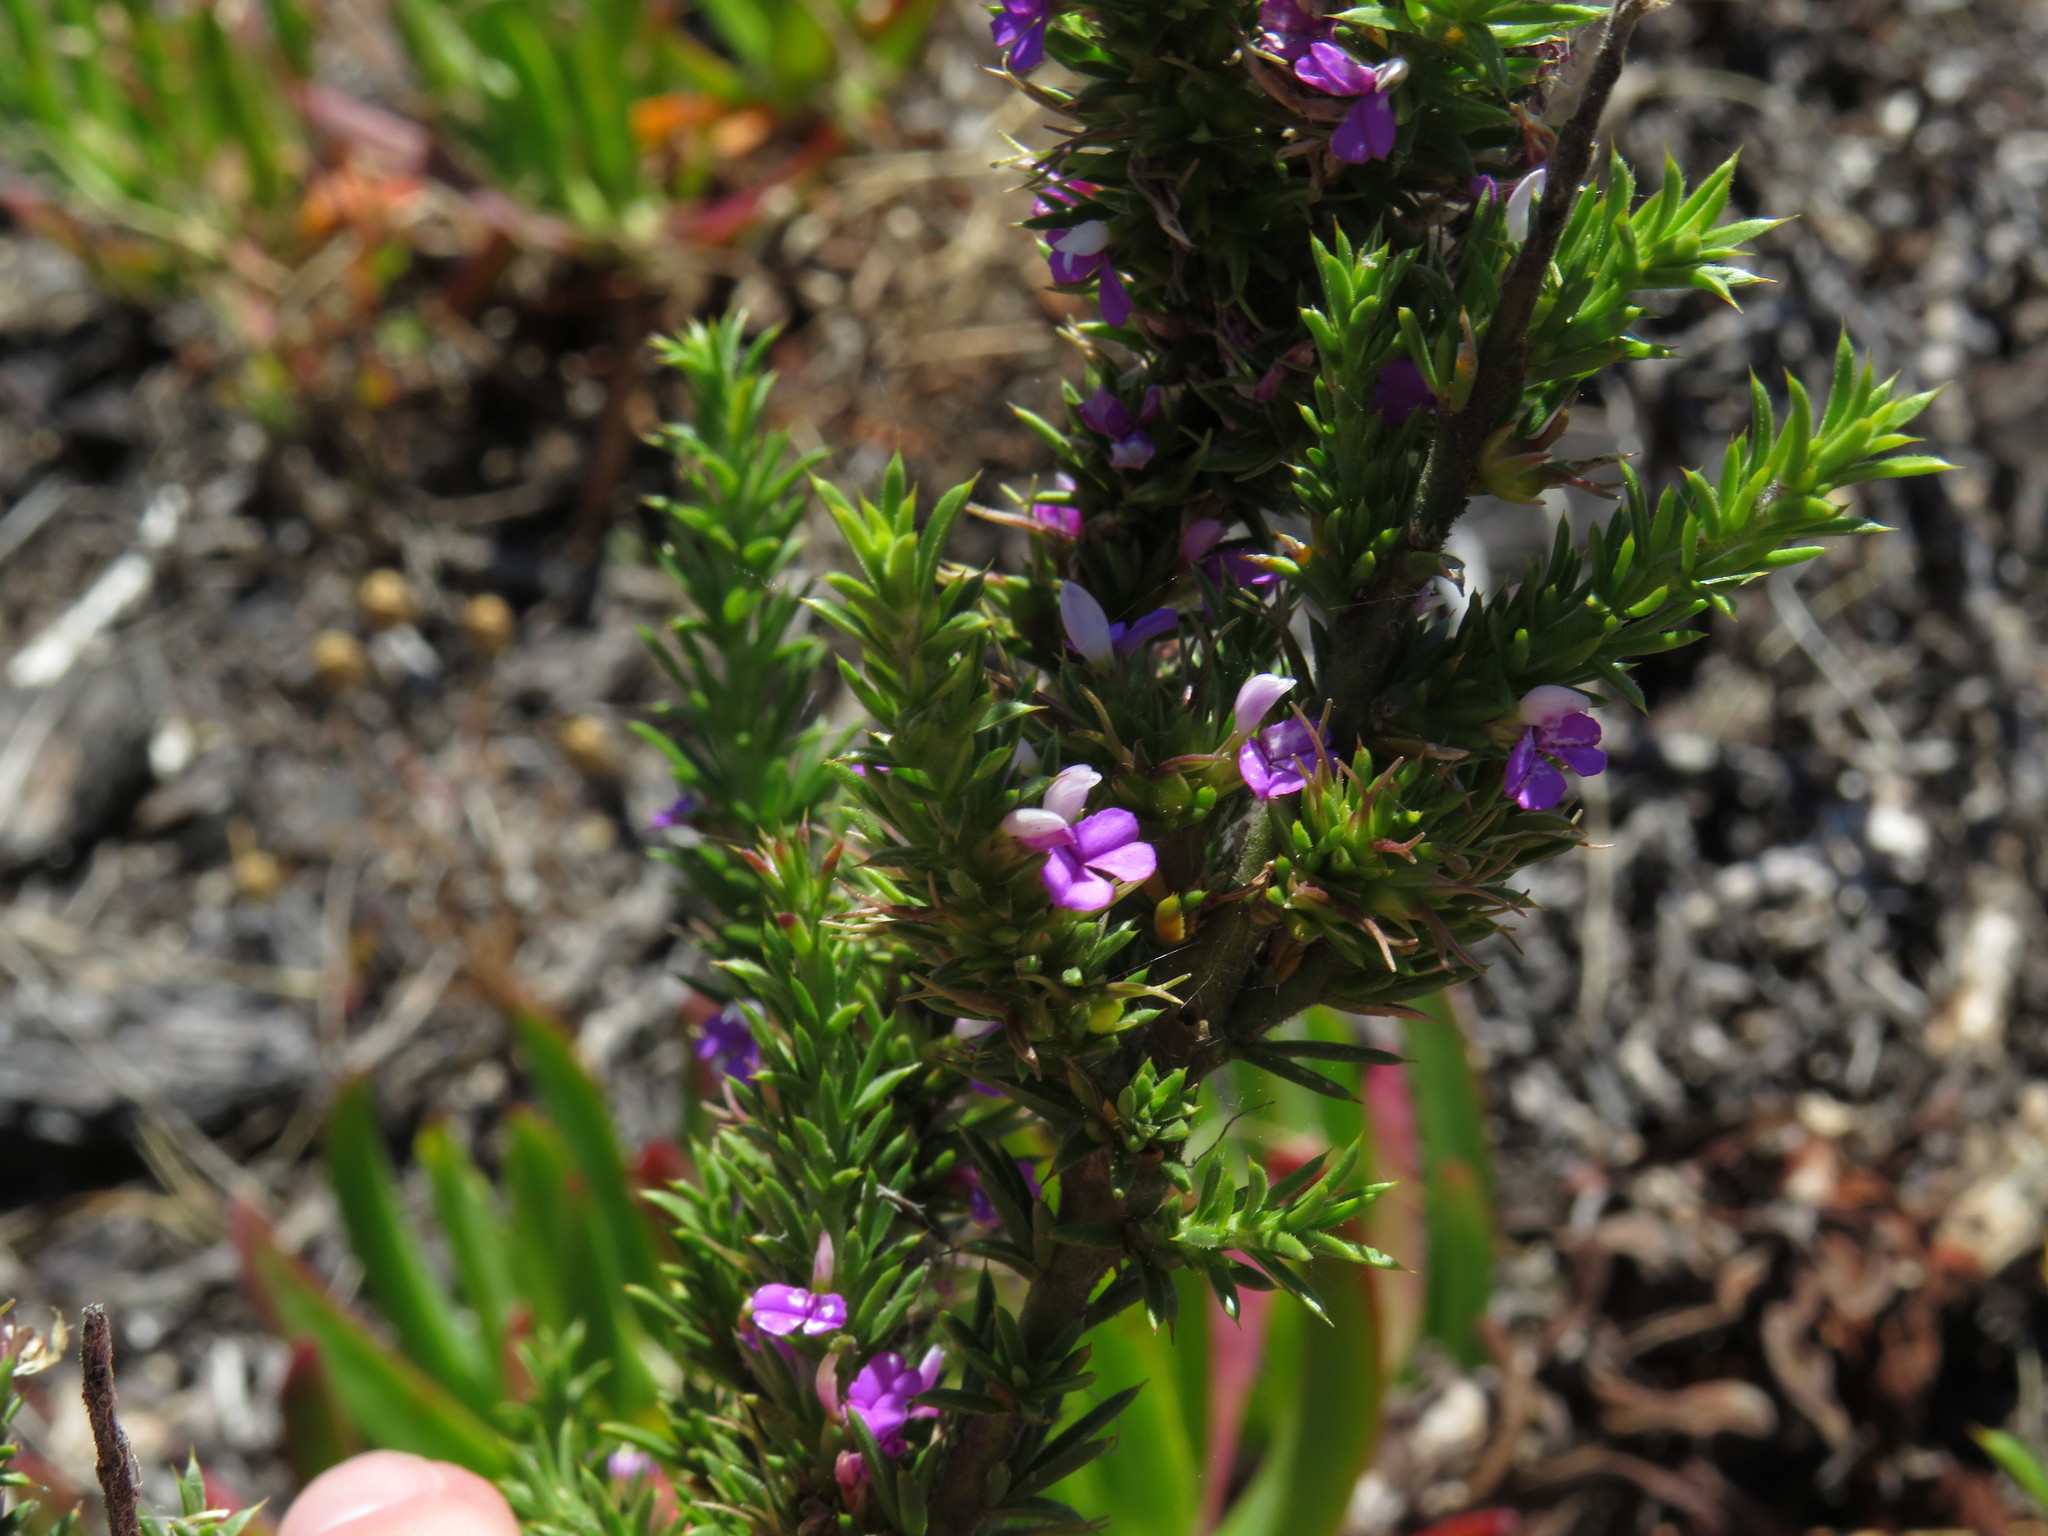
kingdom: Plantae
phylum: Tracheophyta
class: Magnoliopsida
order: Fabales
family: Polygalaceae
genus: Muraltia
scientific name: Muraltia heisteria
